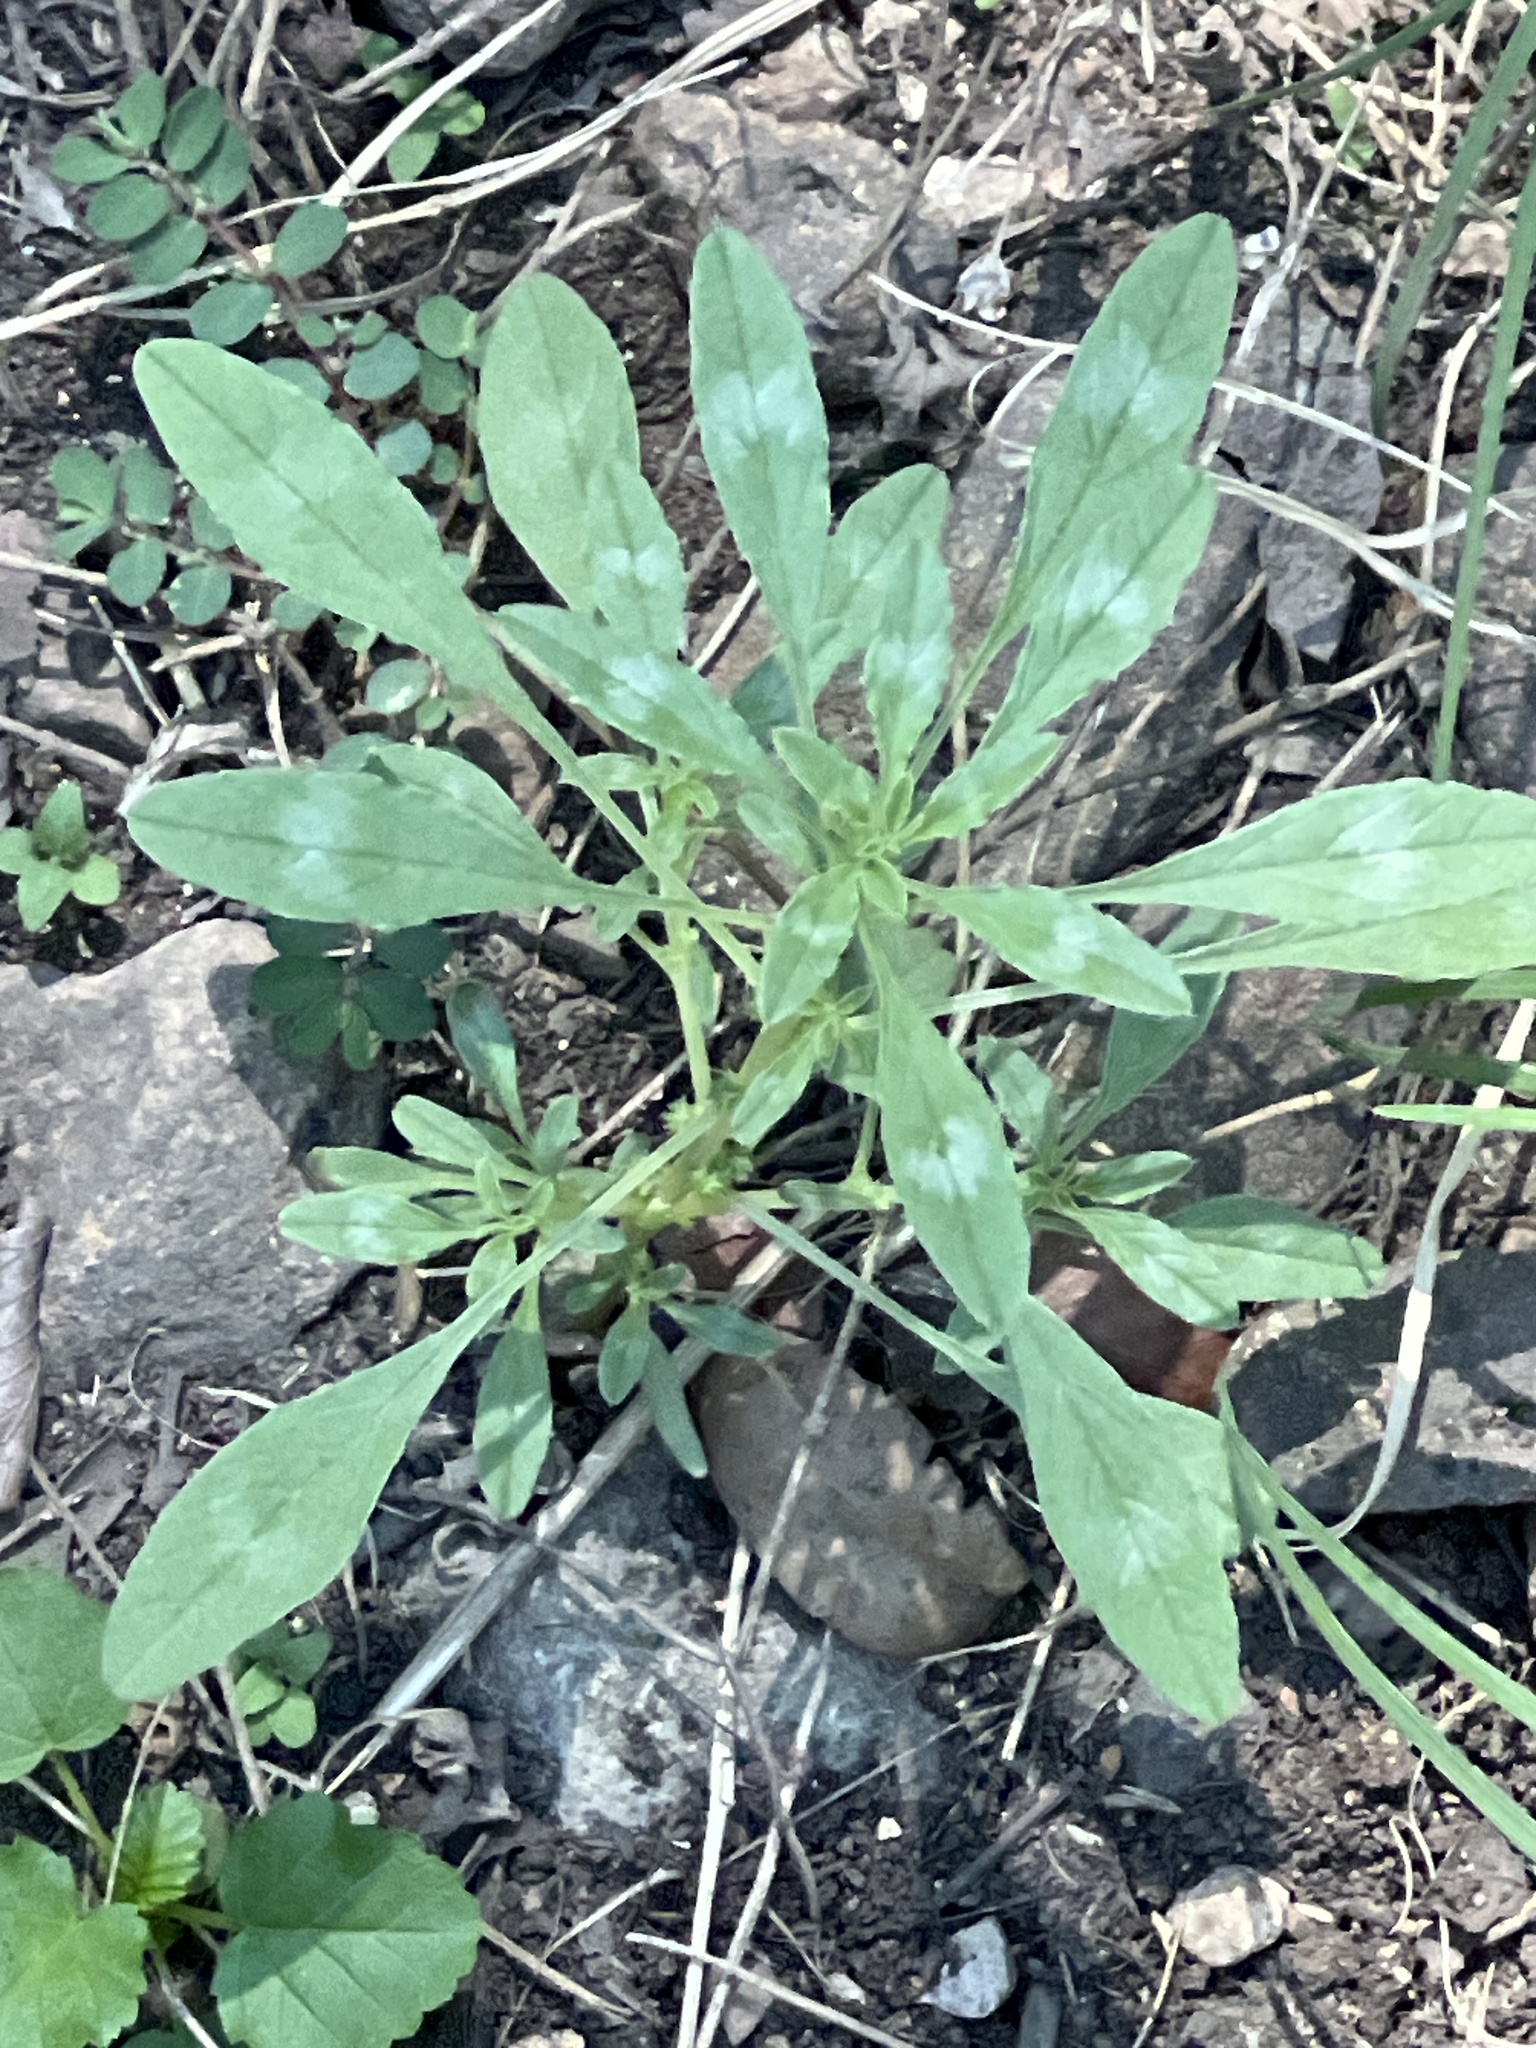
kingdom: Plantae
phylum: Tracheophyta
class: Magnoliopsida
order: Caryophyllales
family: Amaranthaceae
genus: Amaranthus
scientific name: Amaranthus polygonoides
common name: Tropical amaranth
